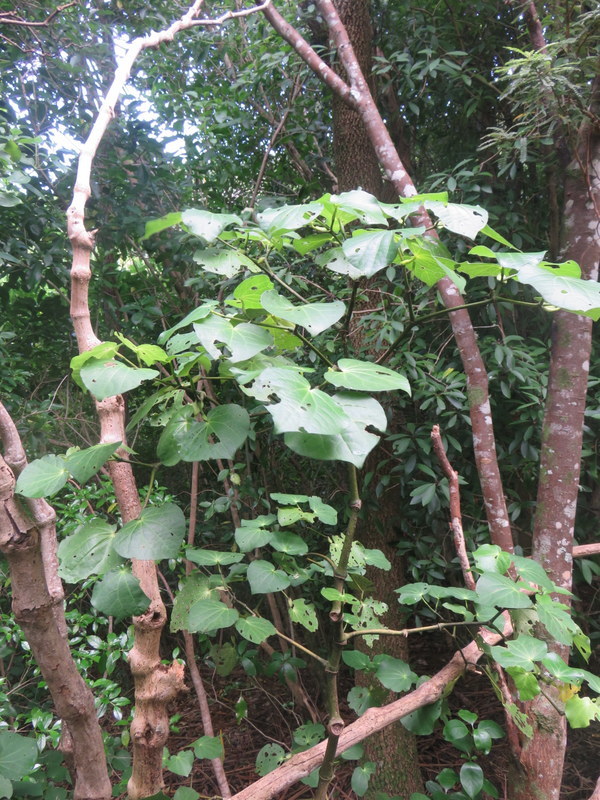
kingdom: Plantae
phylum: Tracheophyta
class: Magnoliopsida
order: Piperales
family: Piperaceae
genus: Macropiper
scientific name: Macropiper excelsum
